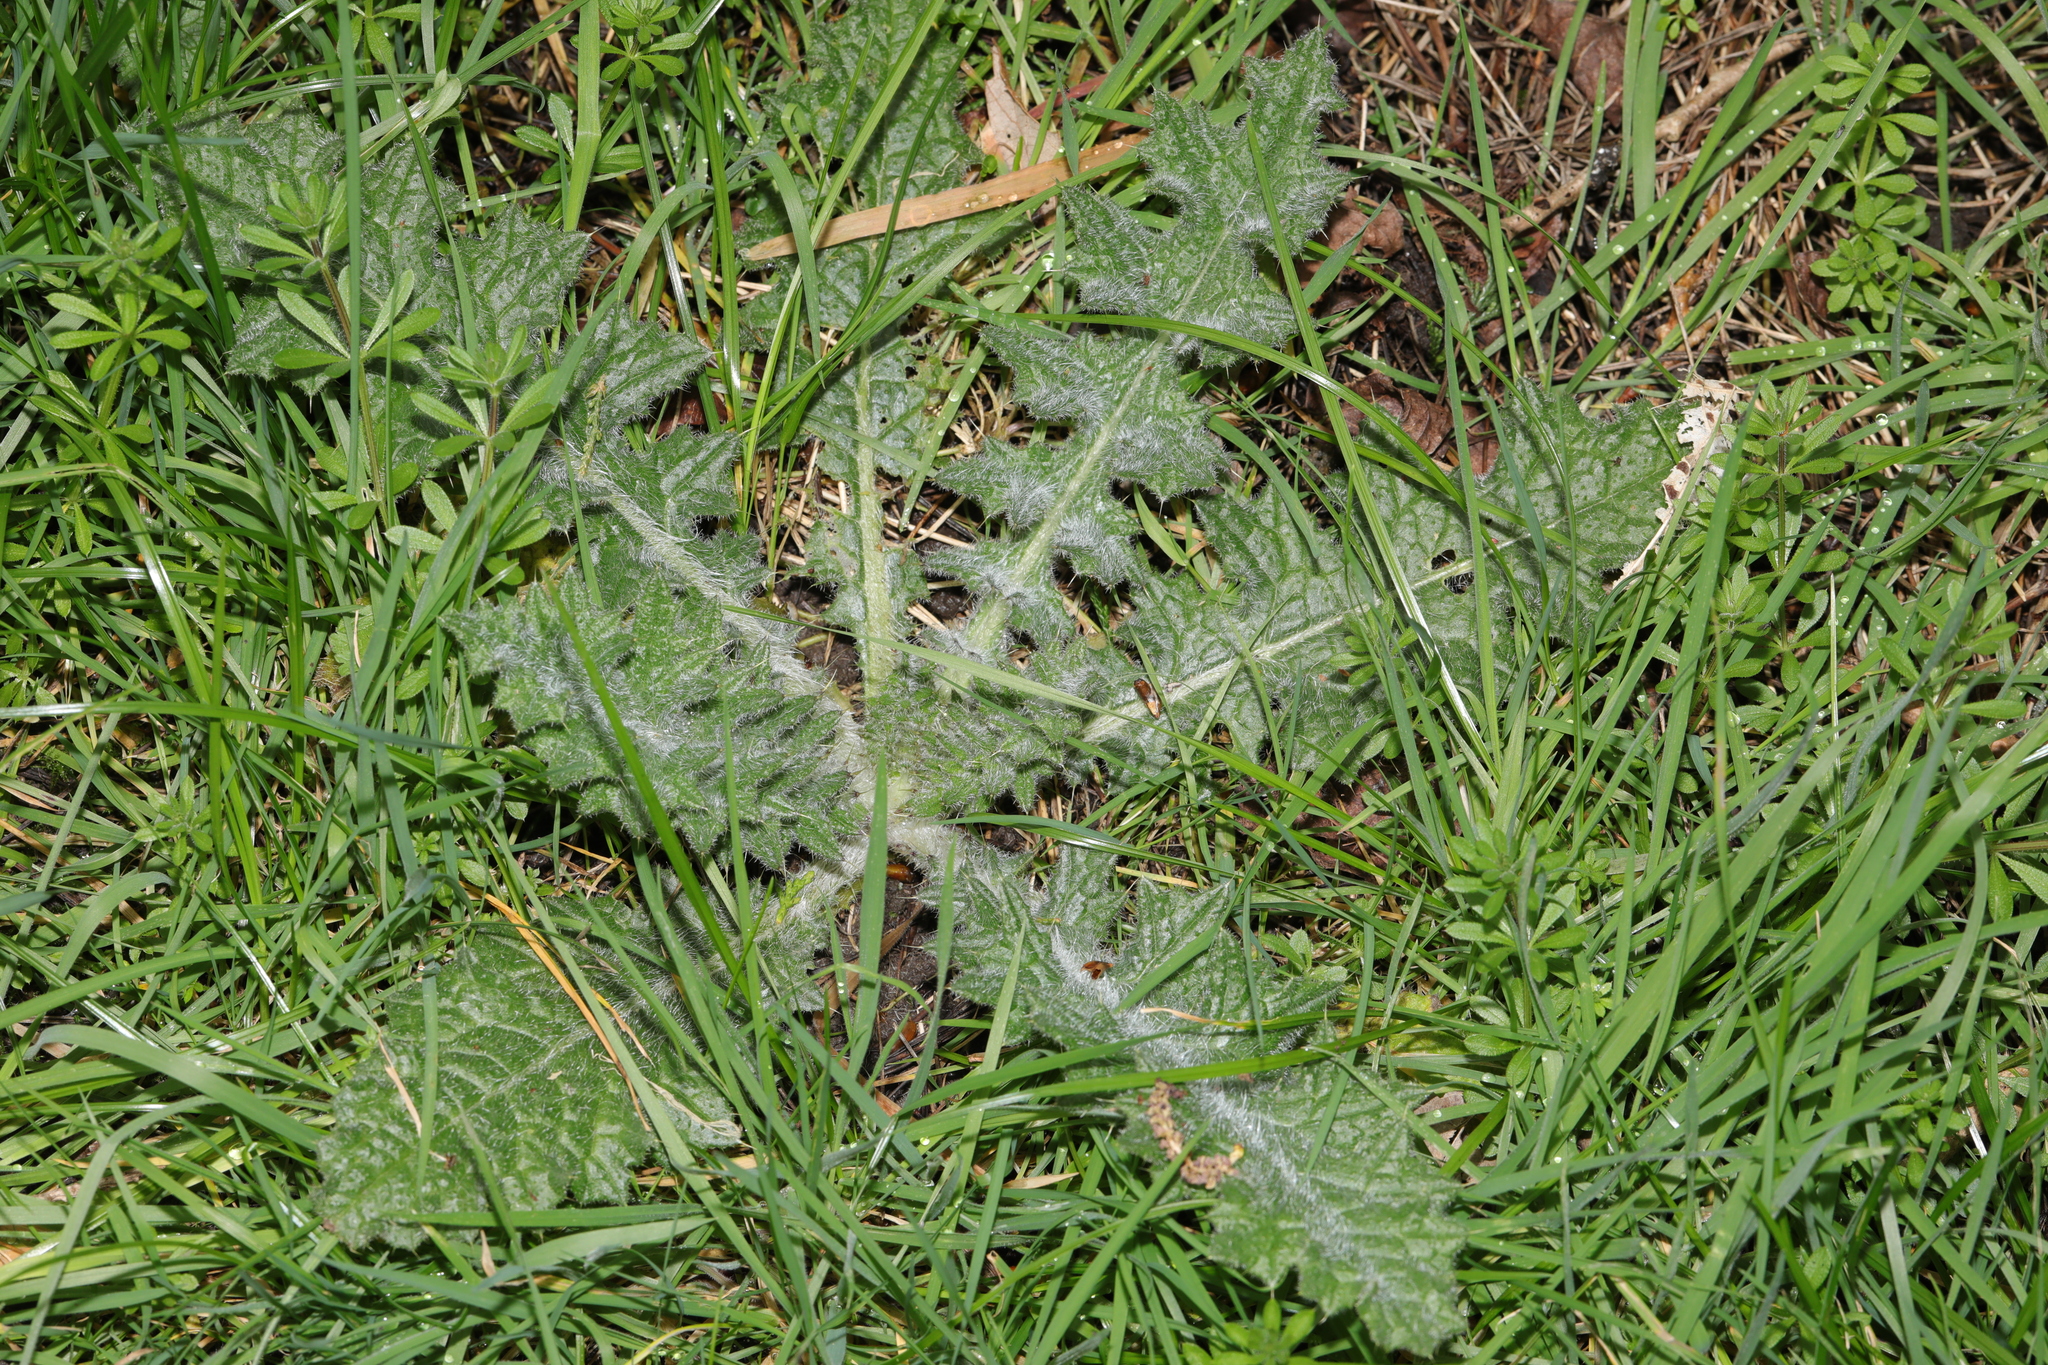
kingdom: Plantae
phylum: Tracheophyta
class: Magnoliopsida
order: Asterales
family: Asteraceae
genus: Cirsium
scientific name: Cirsium vulgare
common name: Bull thistle
